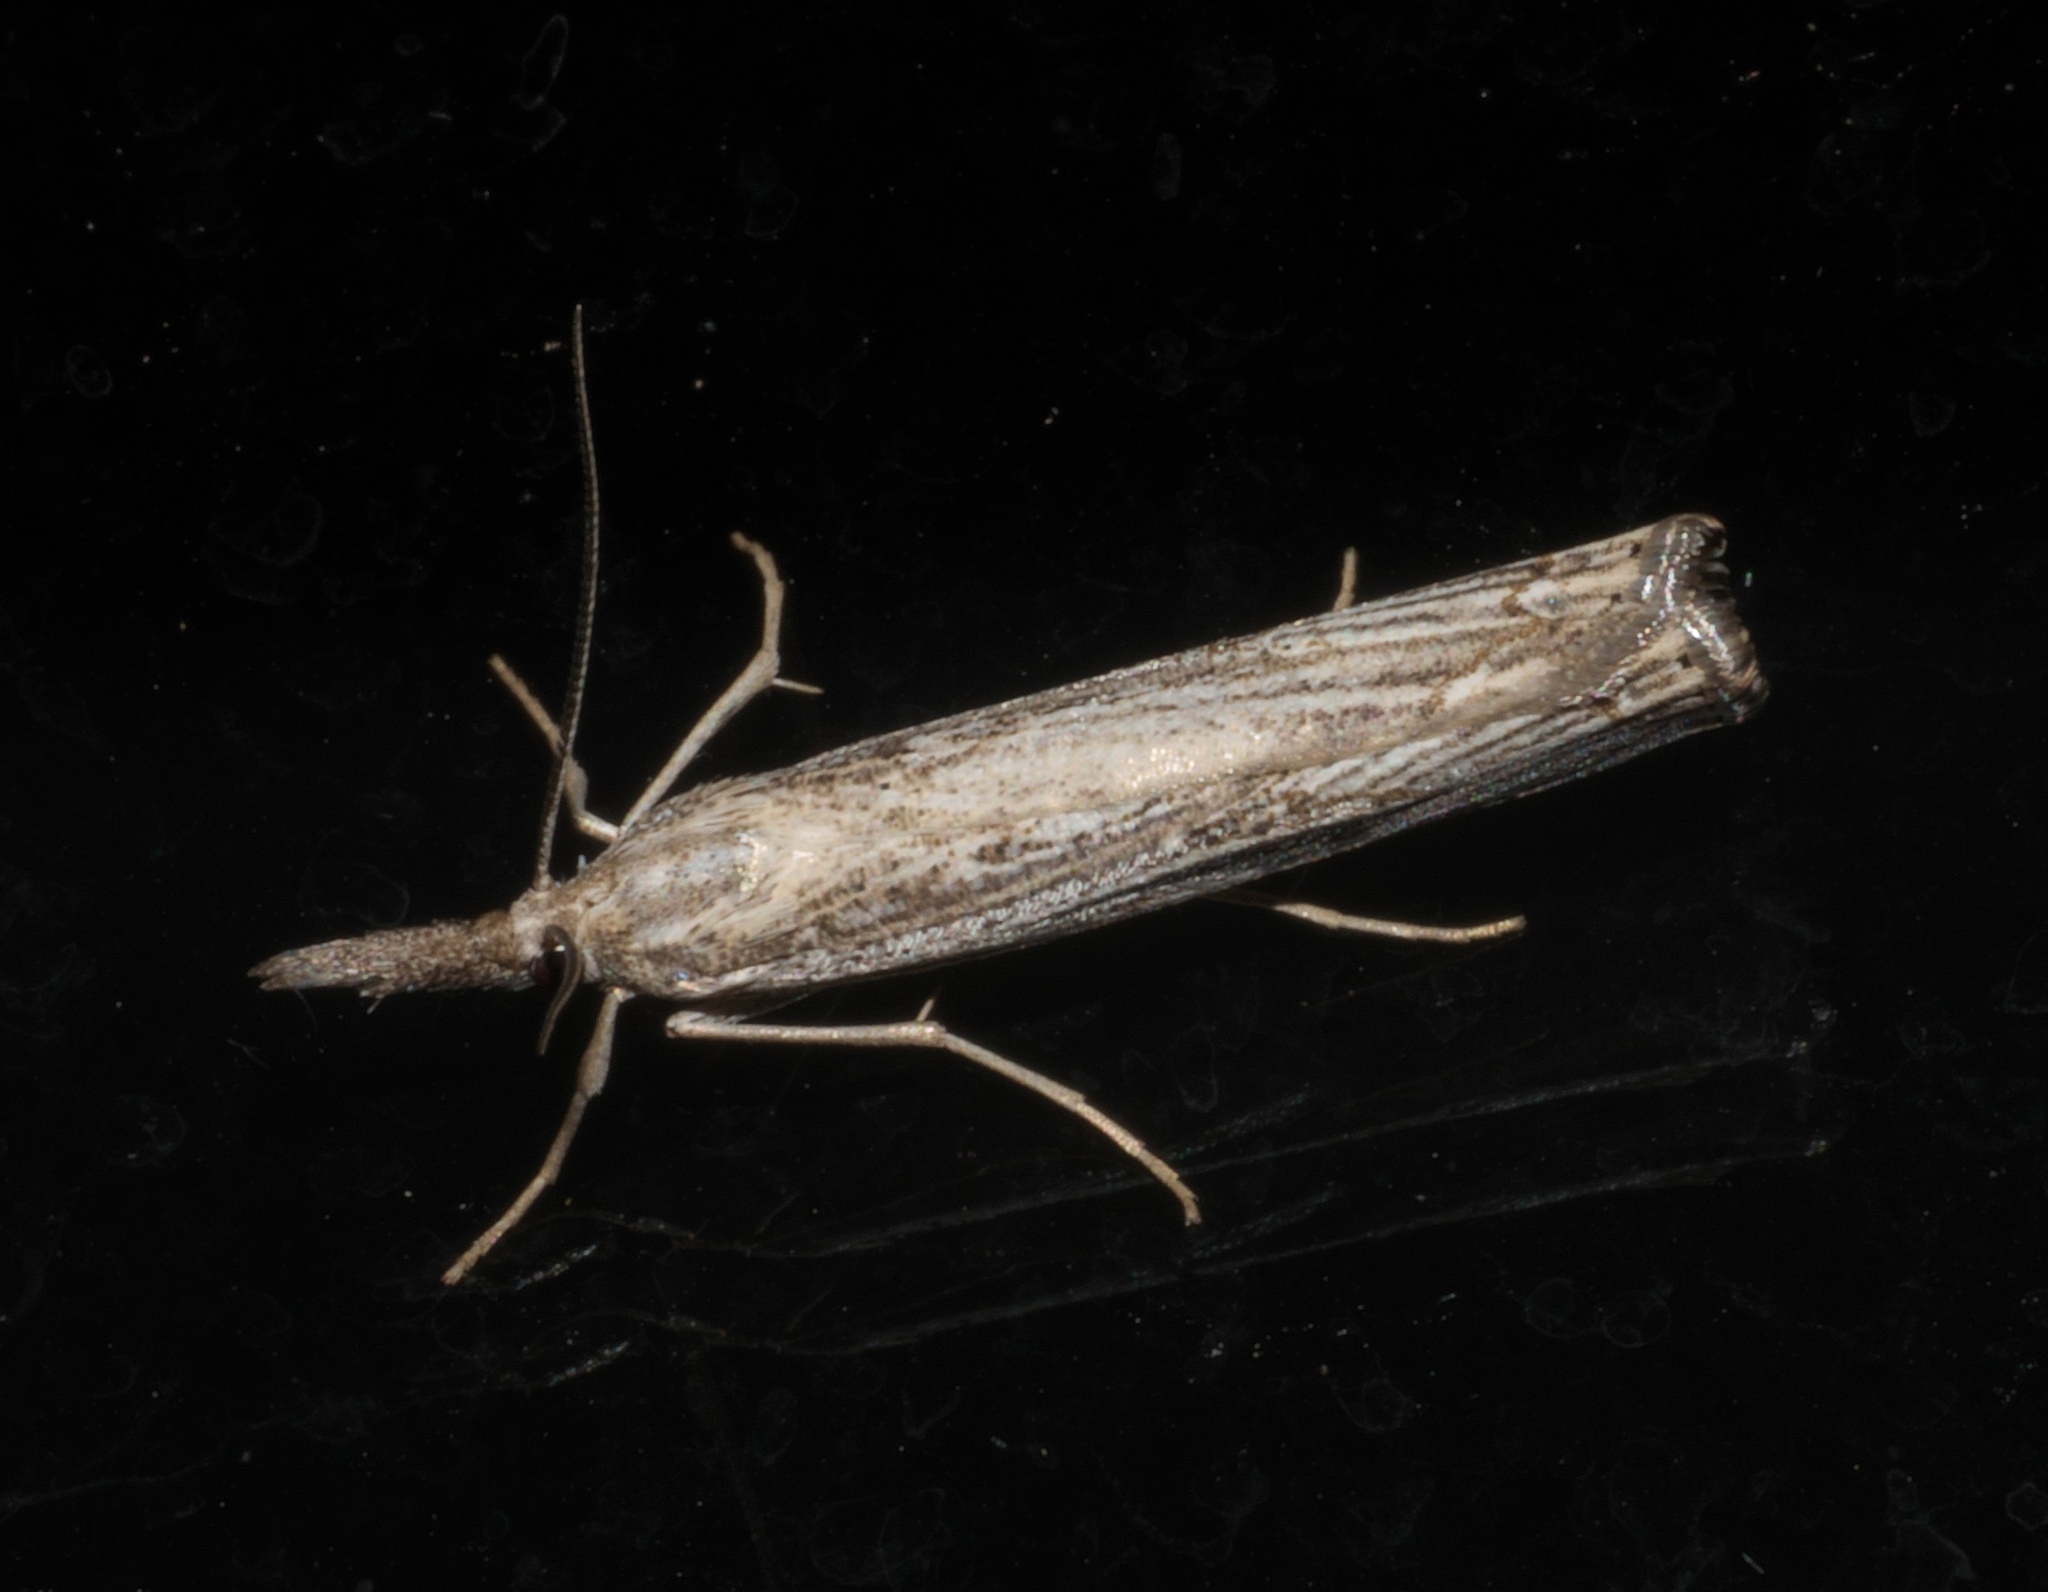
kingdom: Animalia
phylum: Arthropoda
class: Insecta
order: Lepidoptera
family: Crambidae
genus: Agriphila
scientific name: Agriphila vulgivagellus
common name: Vagabond crambus moth
